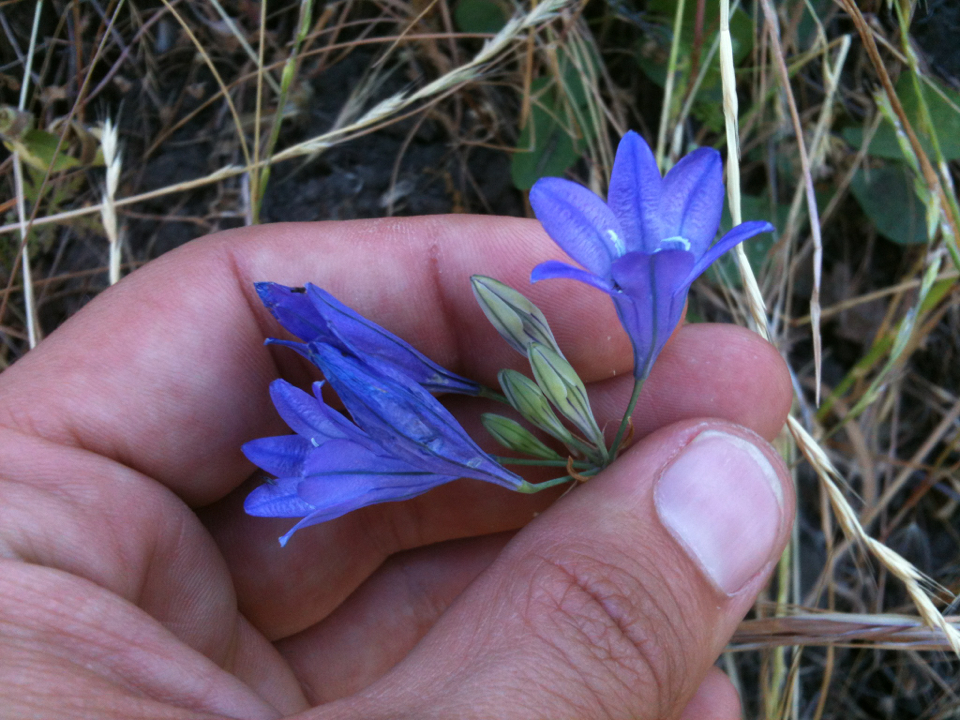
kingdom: Plantae
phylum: Tracheophyta
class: Liliopsida
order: Asparagales
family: Asparagaceae
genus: Triteleia
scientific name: Triteleia laxa
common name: Triplet-lily
